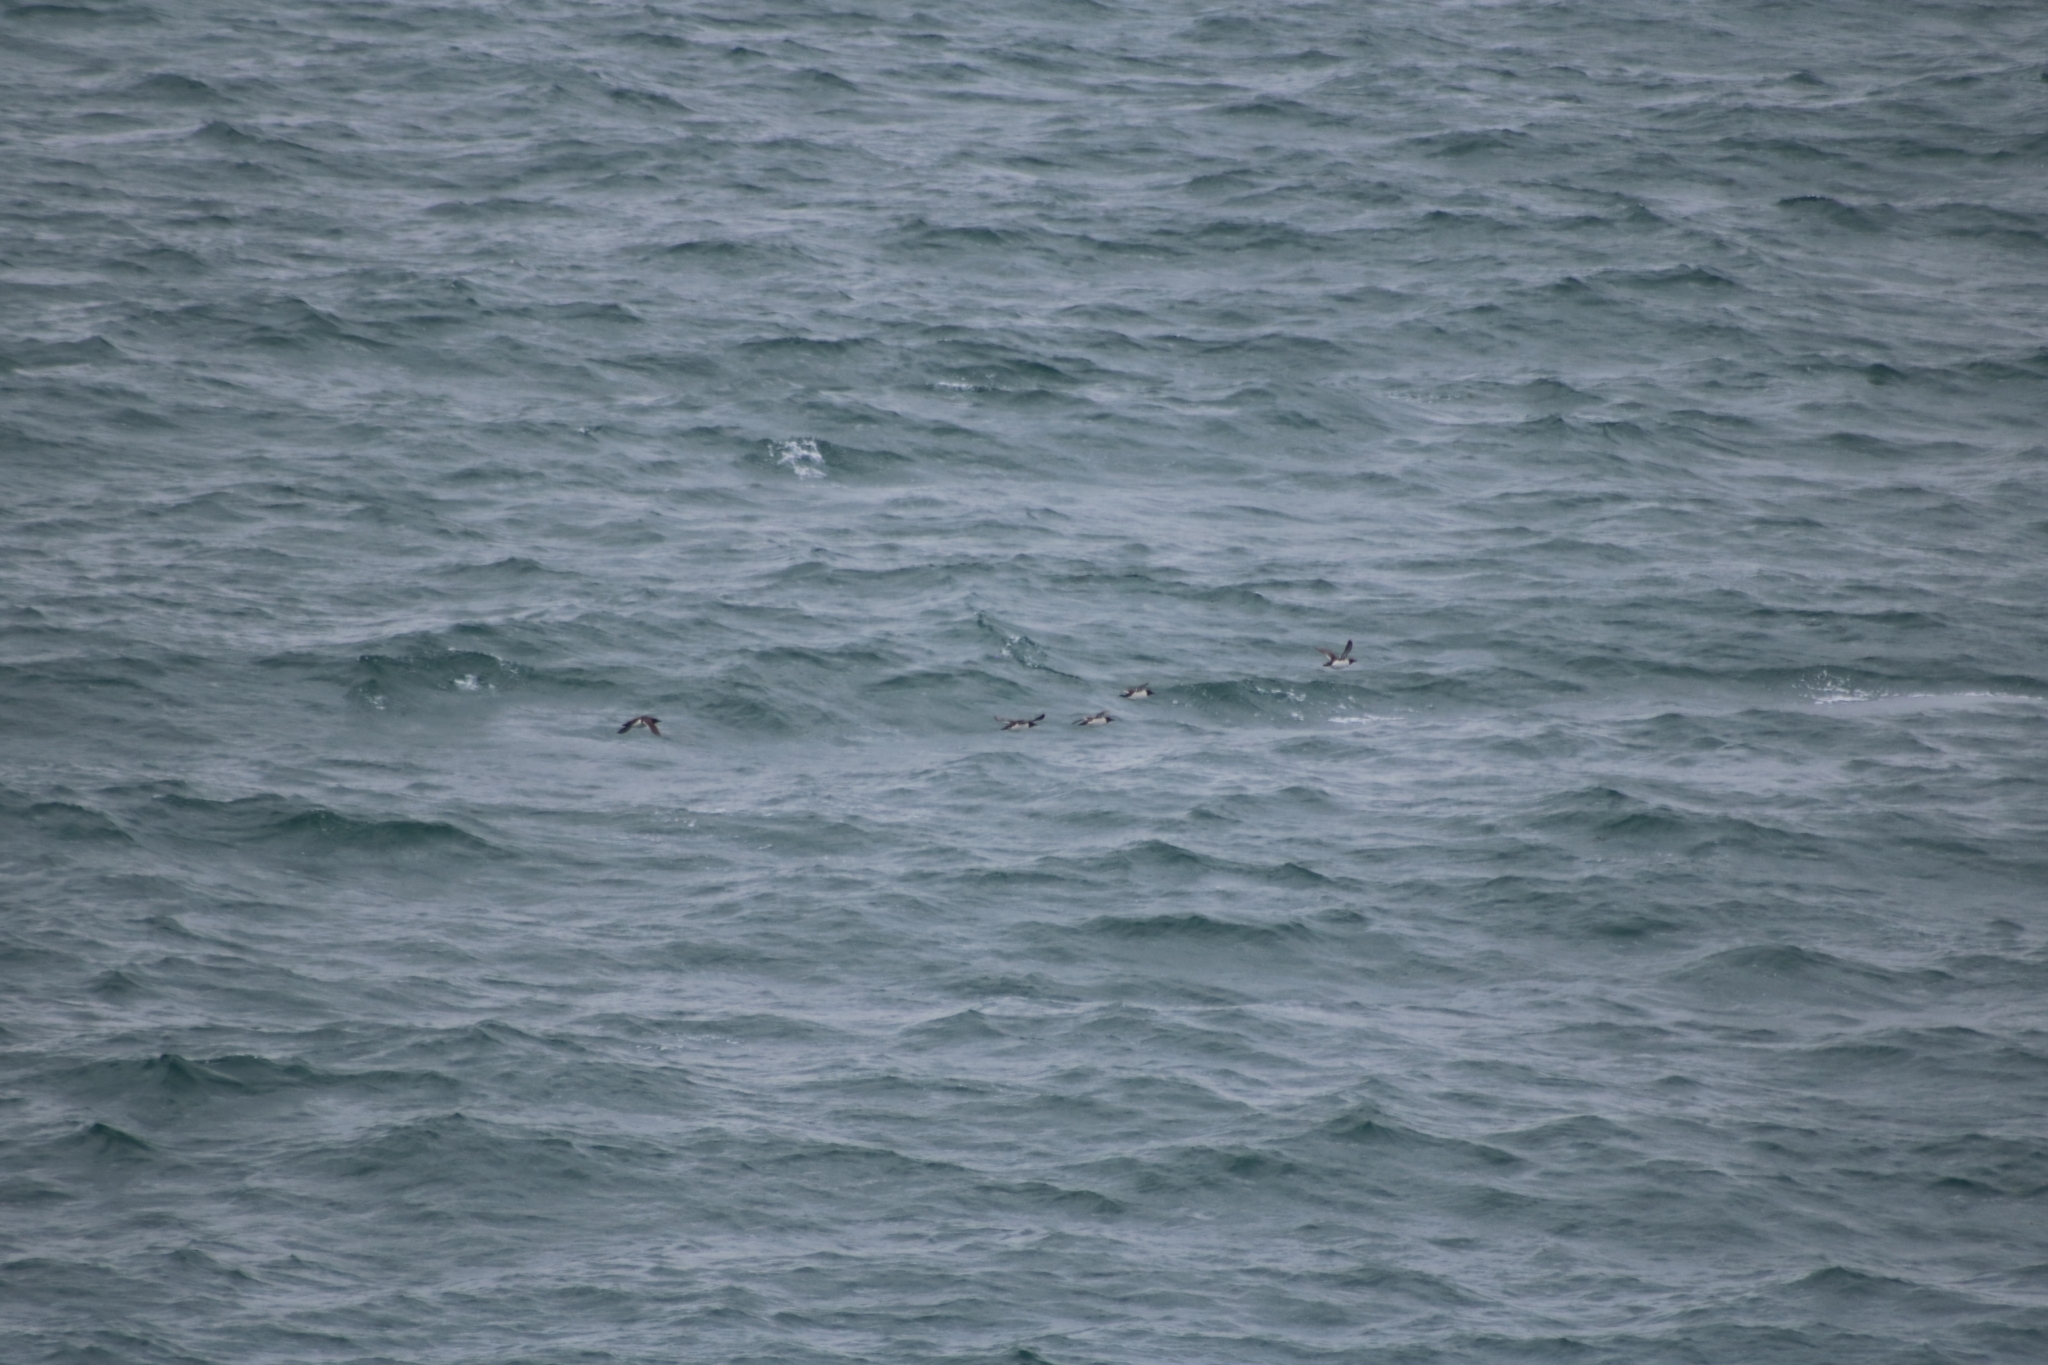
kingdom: Animalia
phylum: Chordata
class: Aves
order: Charadriiformes
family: Alcidae
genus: Uria
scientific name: Uria aalge
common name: Common murre
